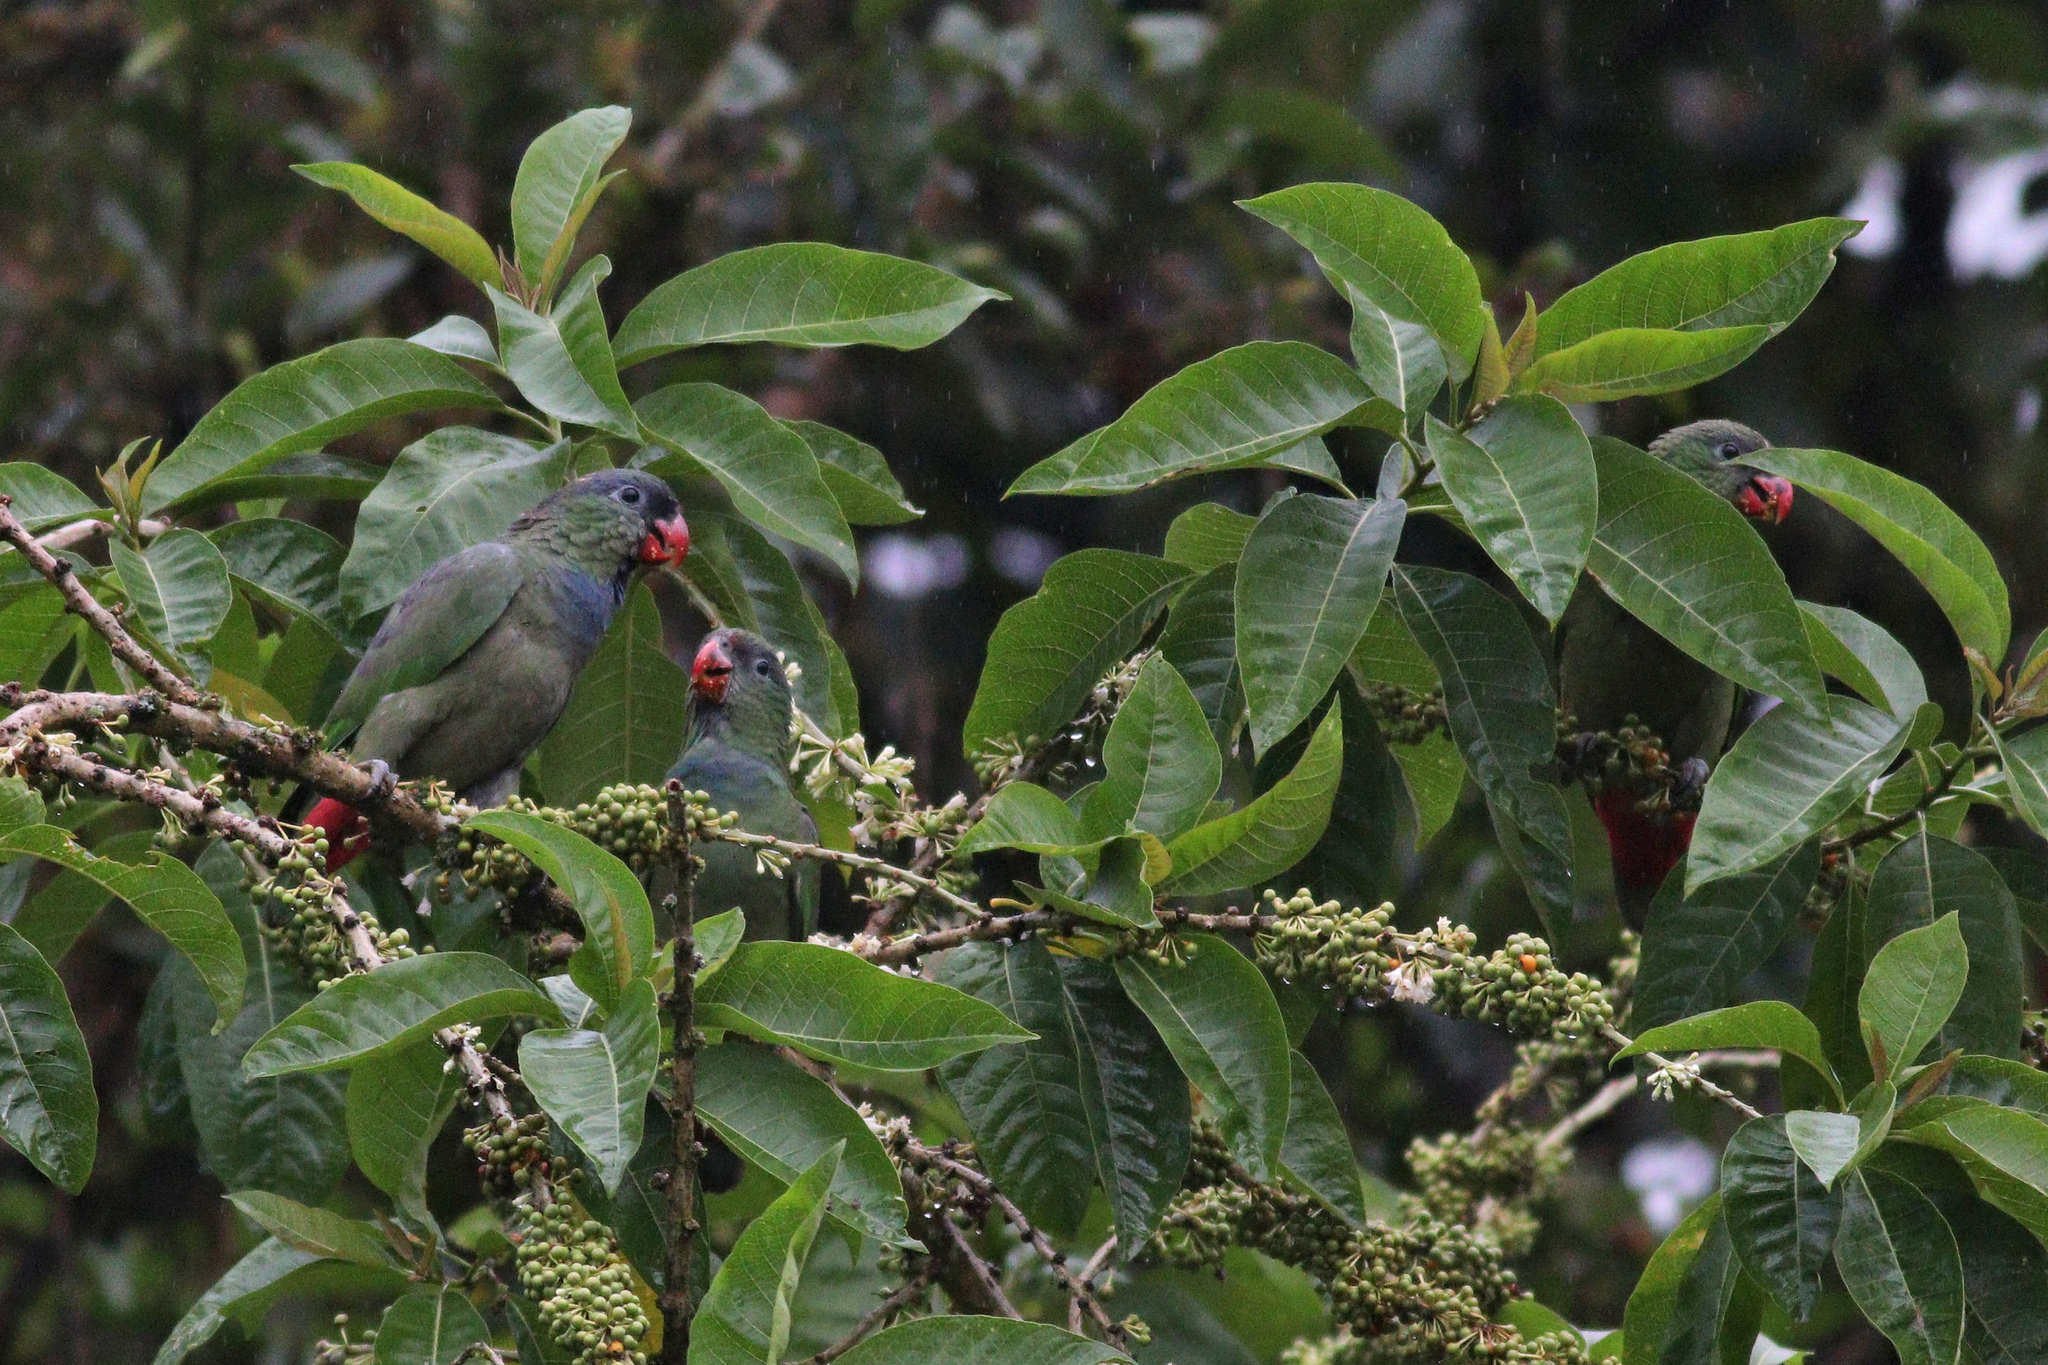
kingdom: Animalia
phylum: Chordata
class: Aves
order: Psittaciformes
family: Psittacidae
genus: Pionus
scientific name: Pionus sordidus
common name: Red-billed parrot
